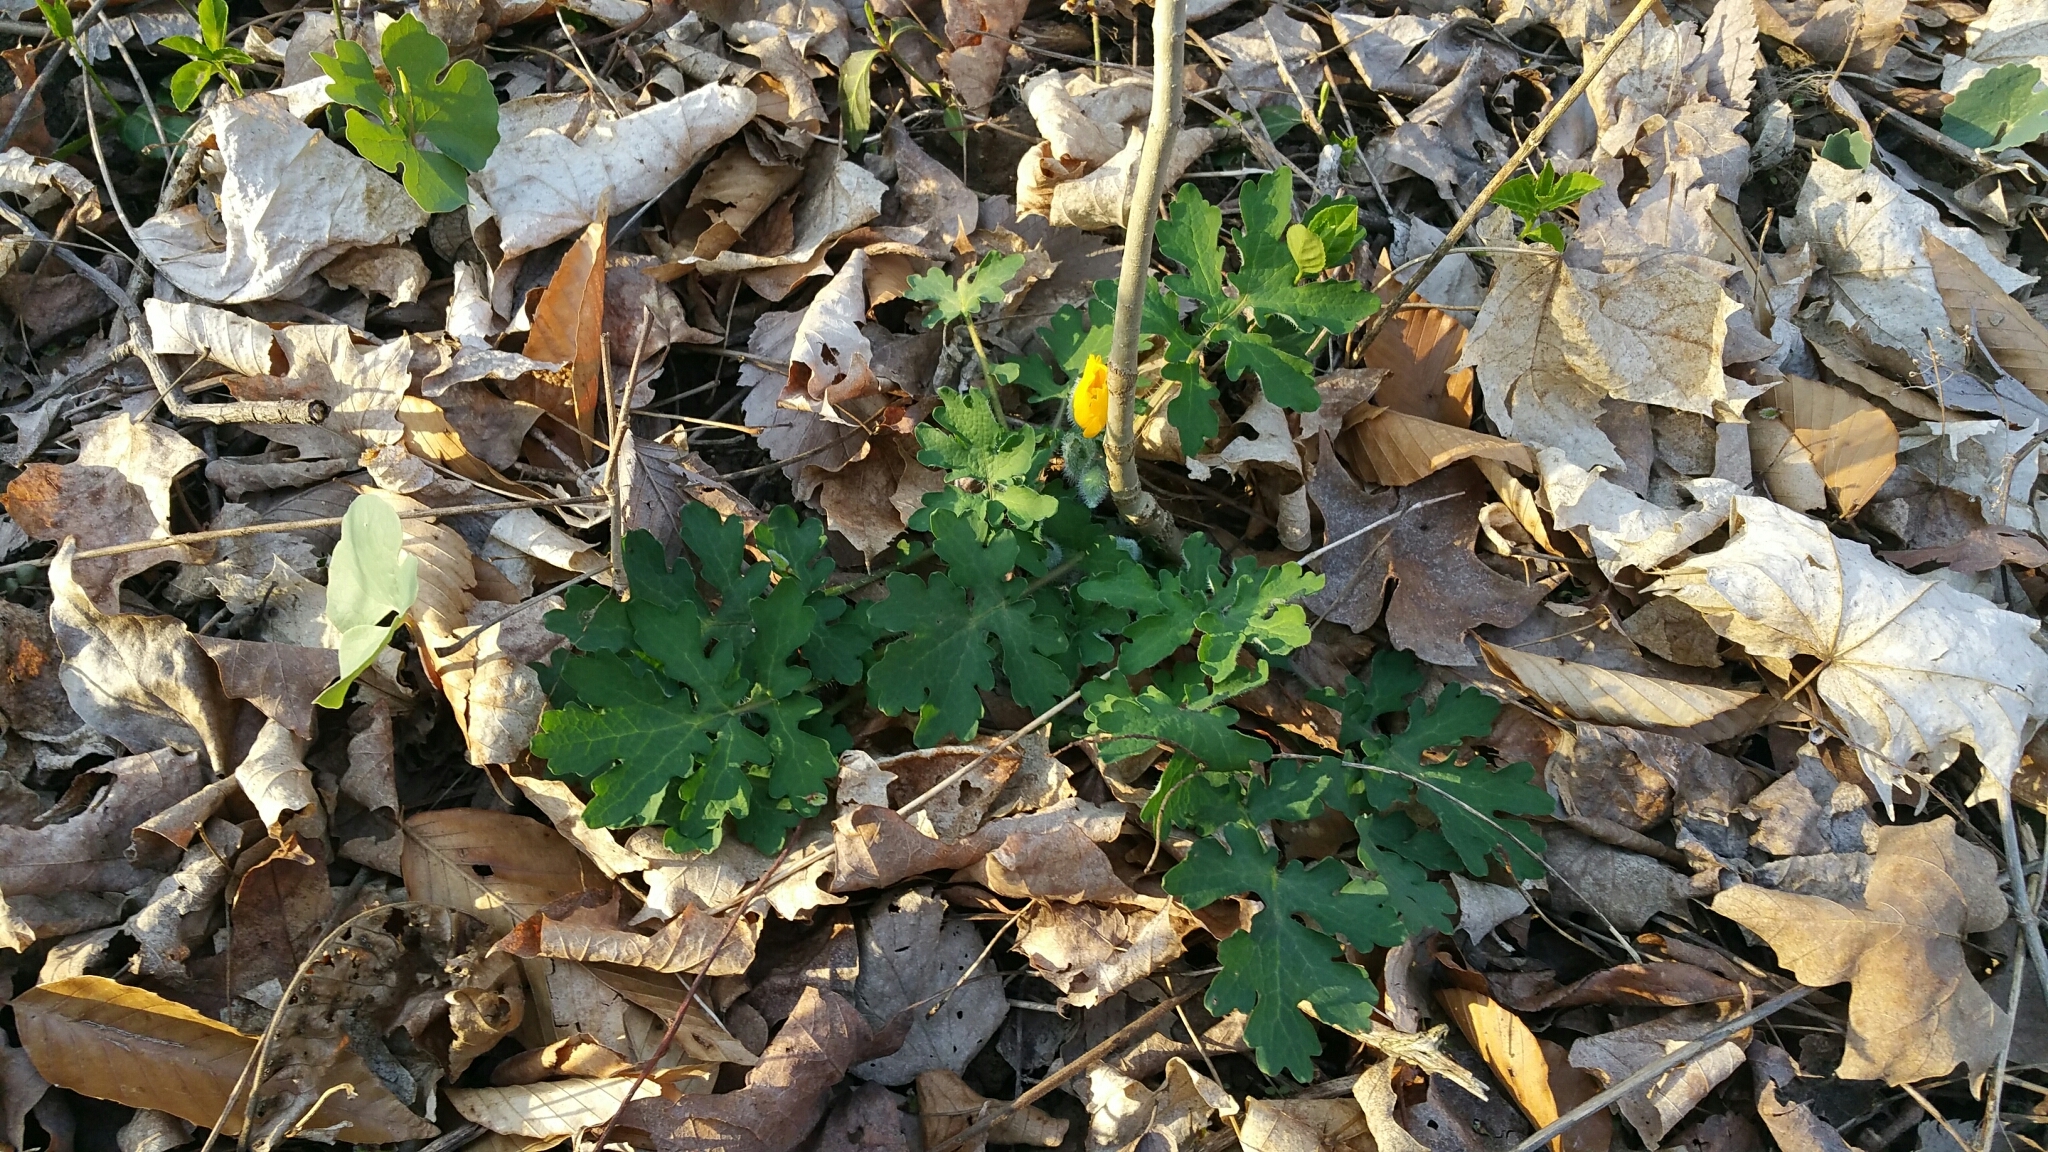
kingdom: Plantae
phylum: Tracheophyta
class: Magnoliopsida
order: Ranunculales
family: Papaveraceae
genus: Stylophorum
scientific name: Stylophorum diphyllum
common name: Celandine poppy
